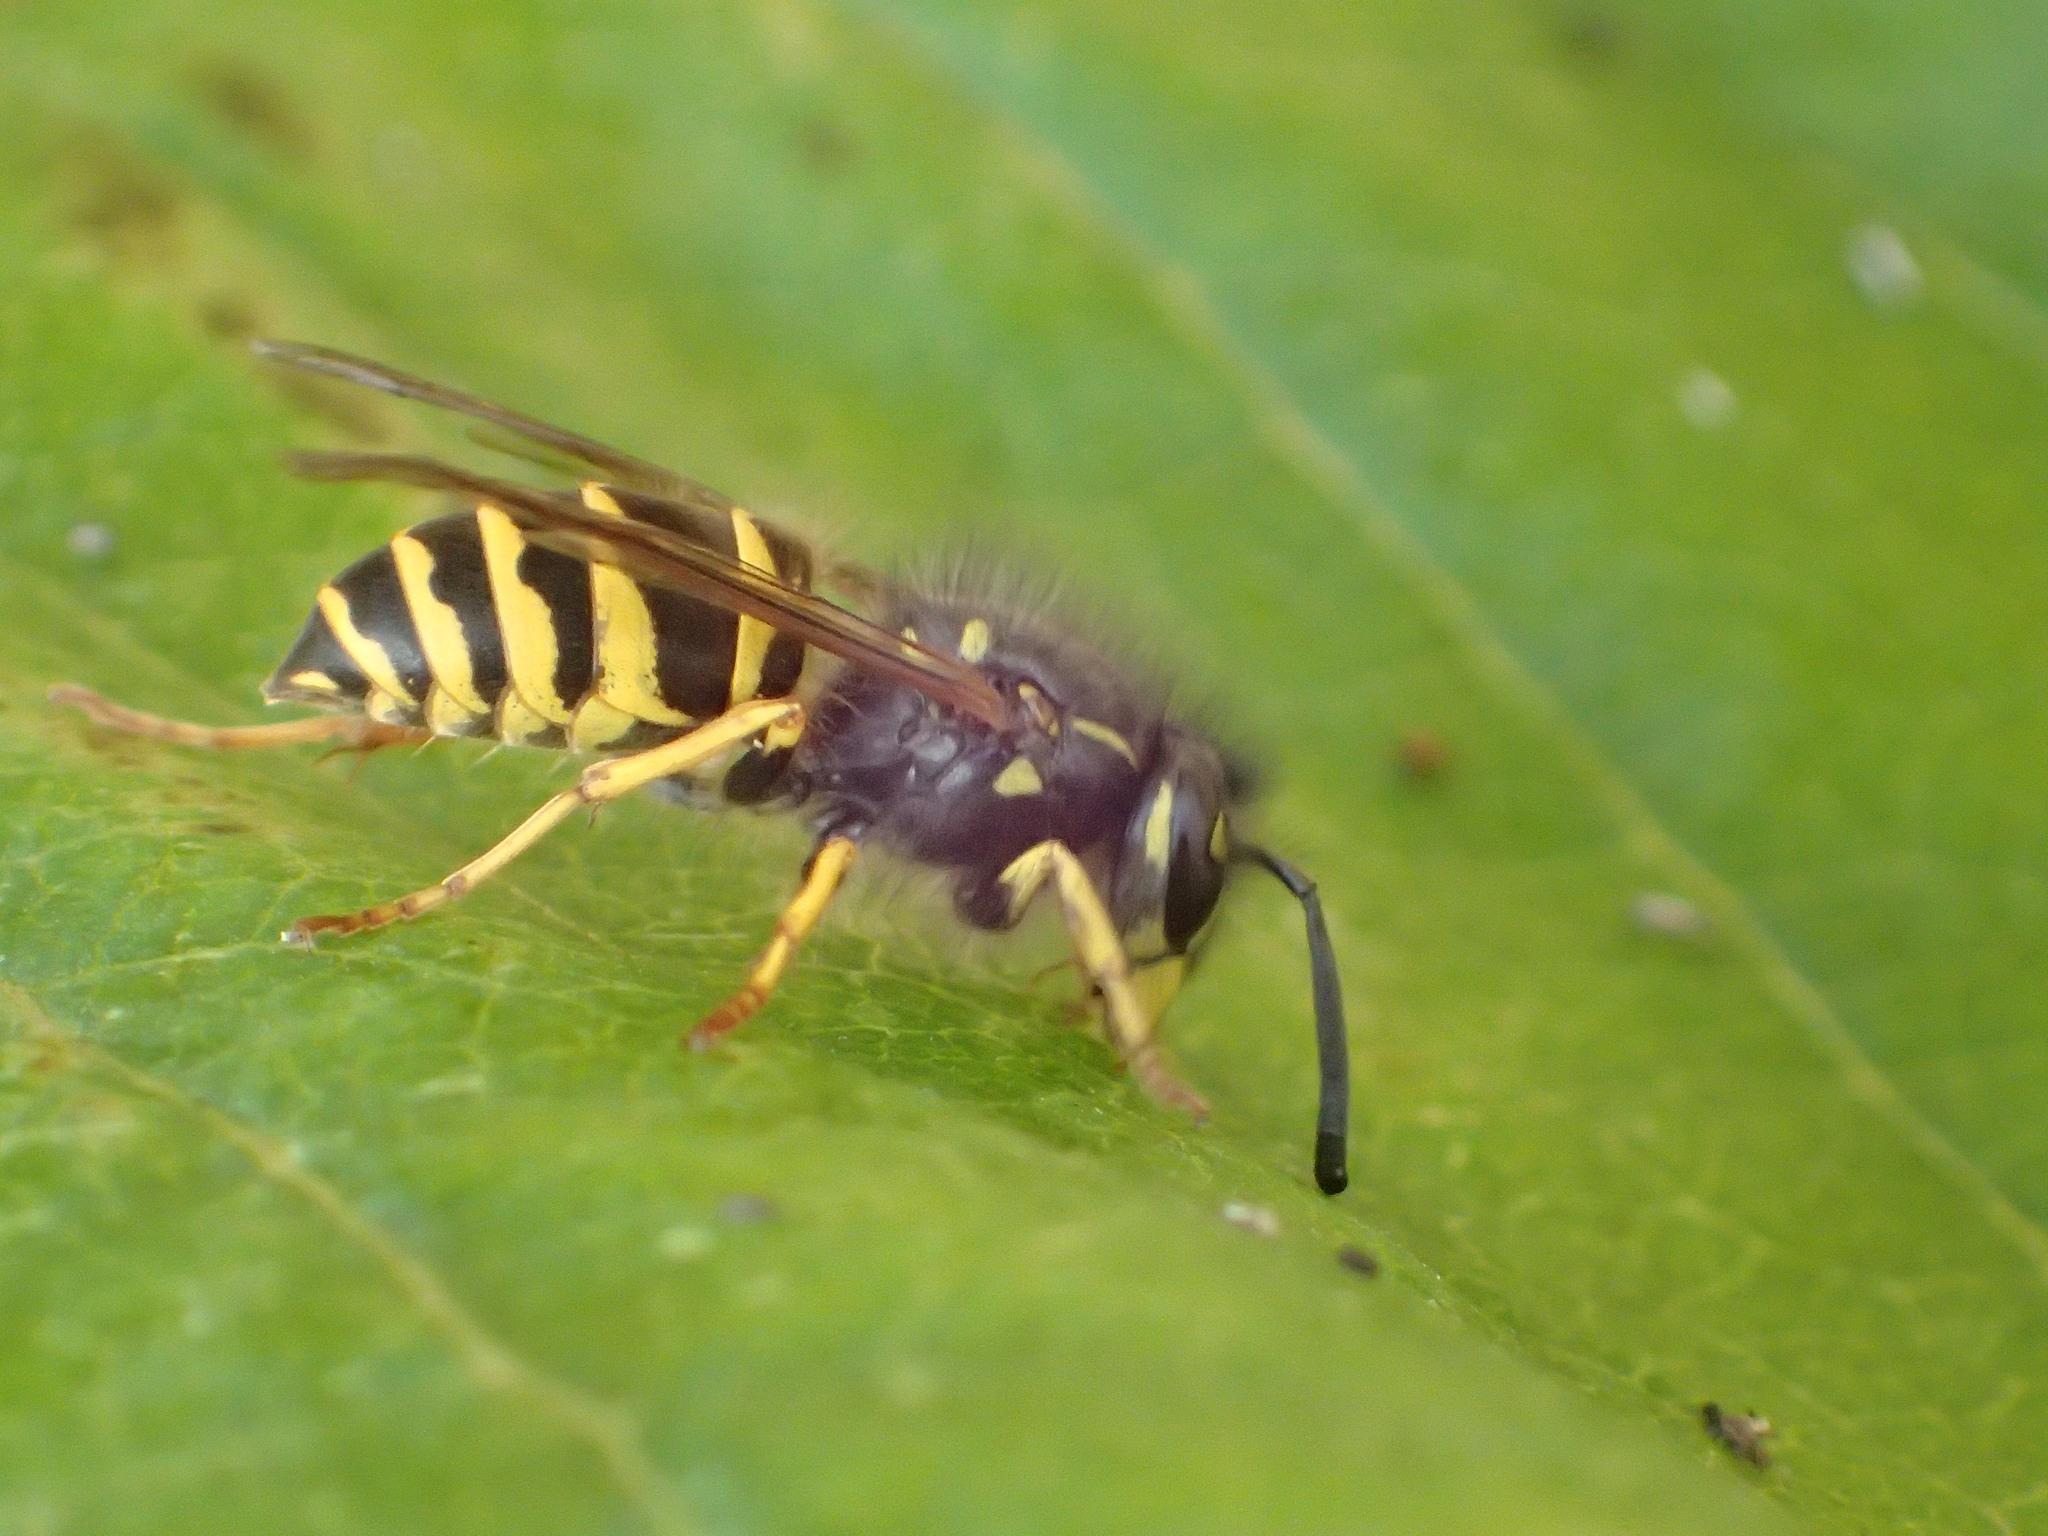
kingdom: Animalia
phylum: Arthropoda
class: Insecta
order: Hymenoptera
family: Vespidae
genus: Vespula
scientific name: Vespula alascensis
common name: Alaska yellowjacket
